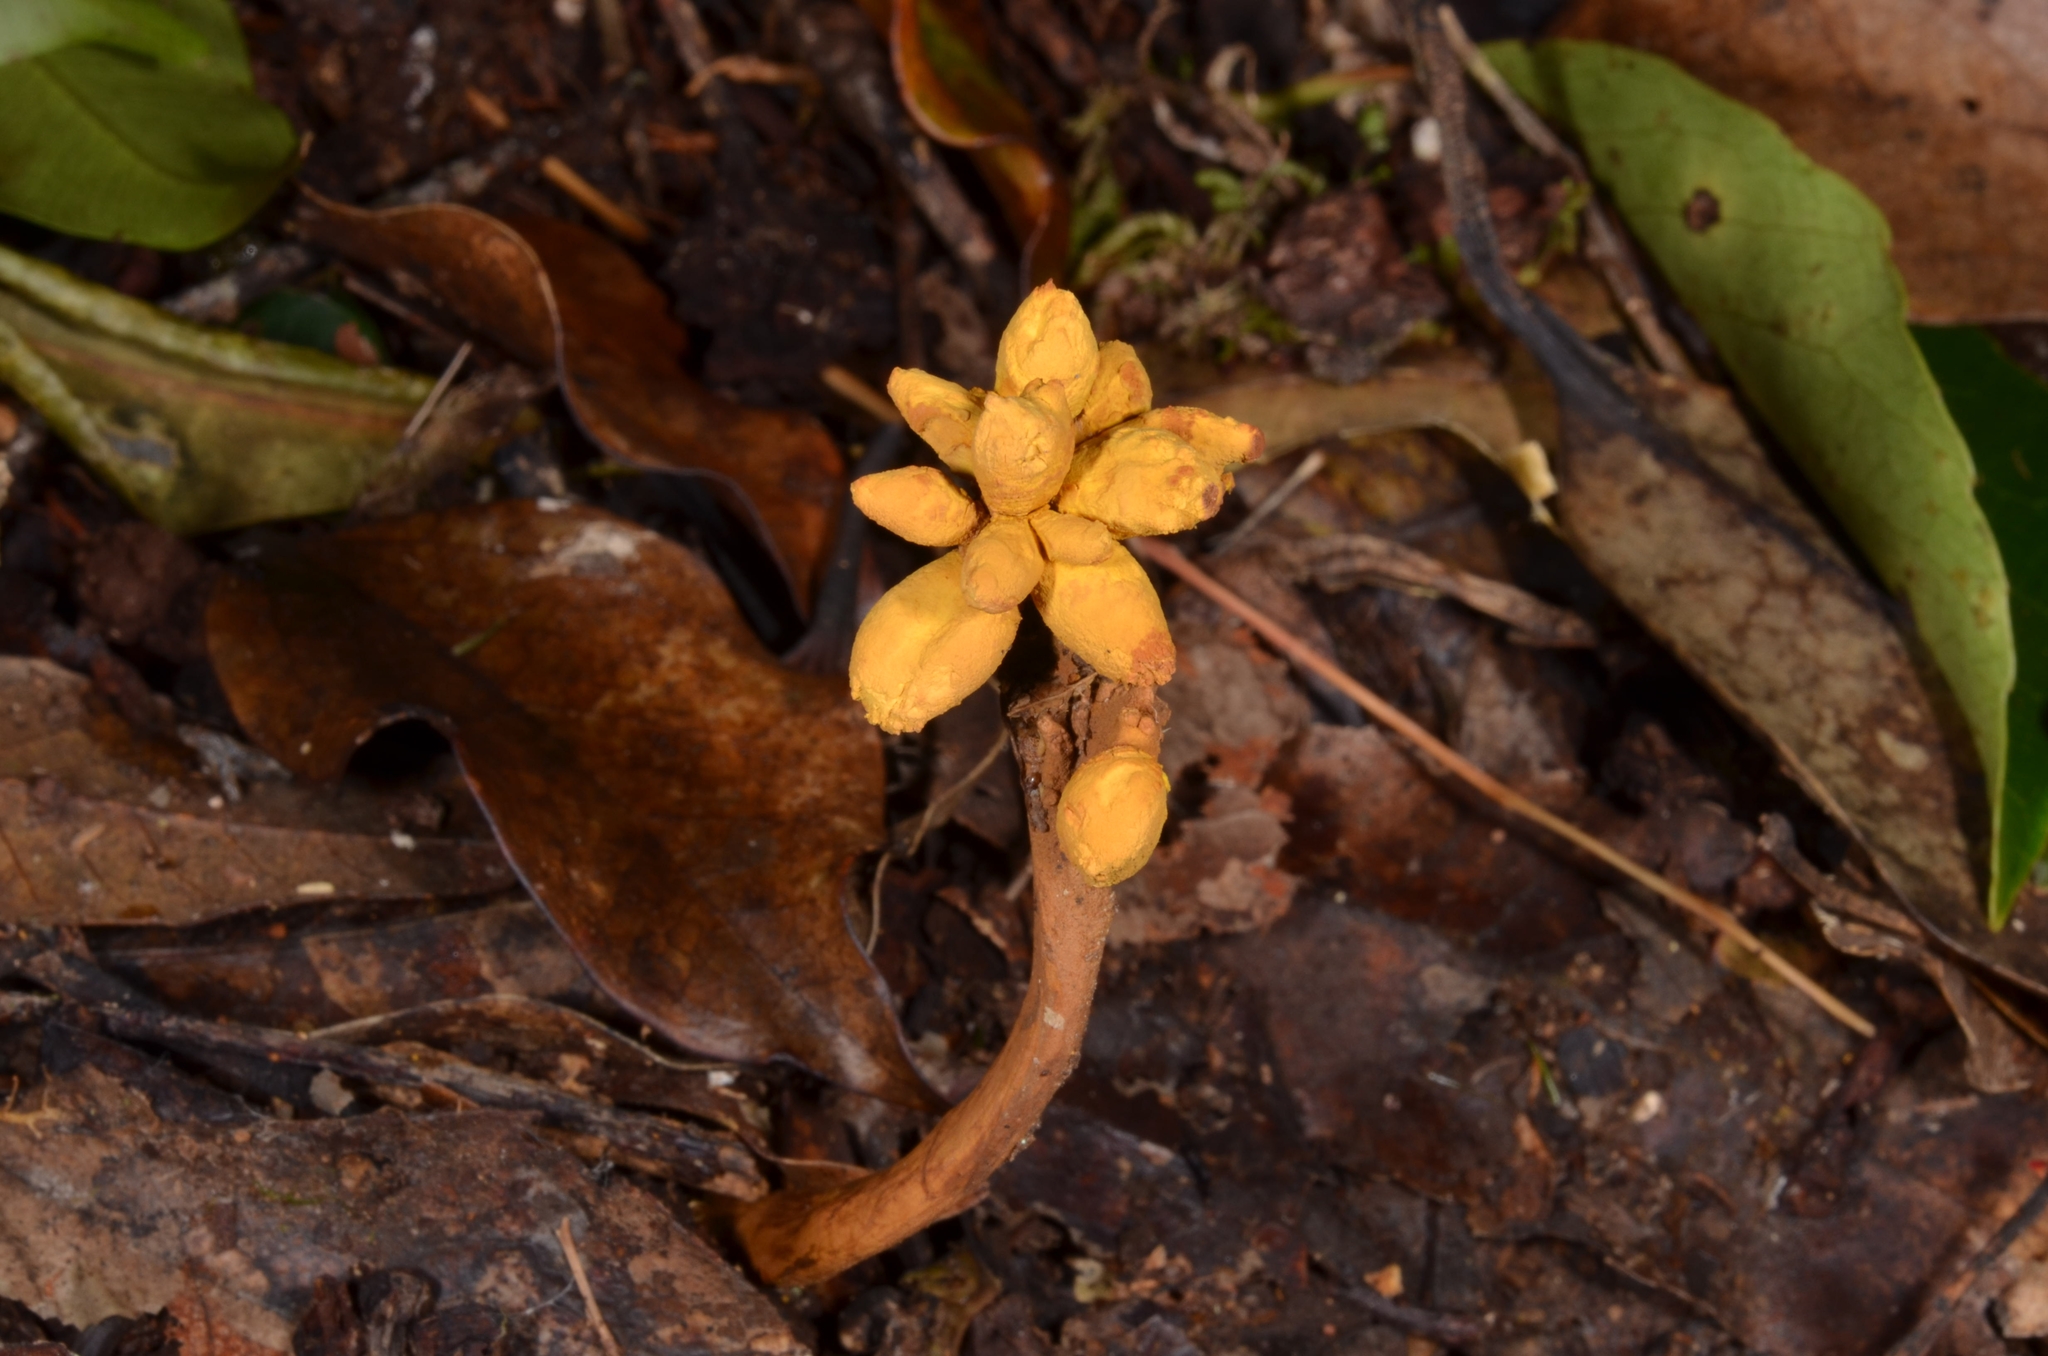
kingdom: Fungi
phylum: Ascomycota
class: Eurotiomycetes
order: Eurotiales
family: Aspergillaceae
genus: Dendrosphaera
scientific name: Dendrosphaera eberhardtii
